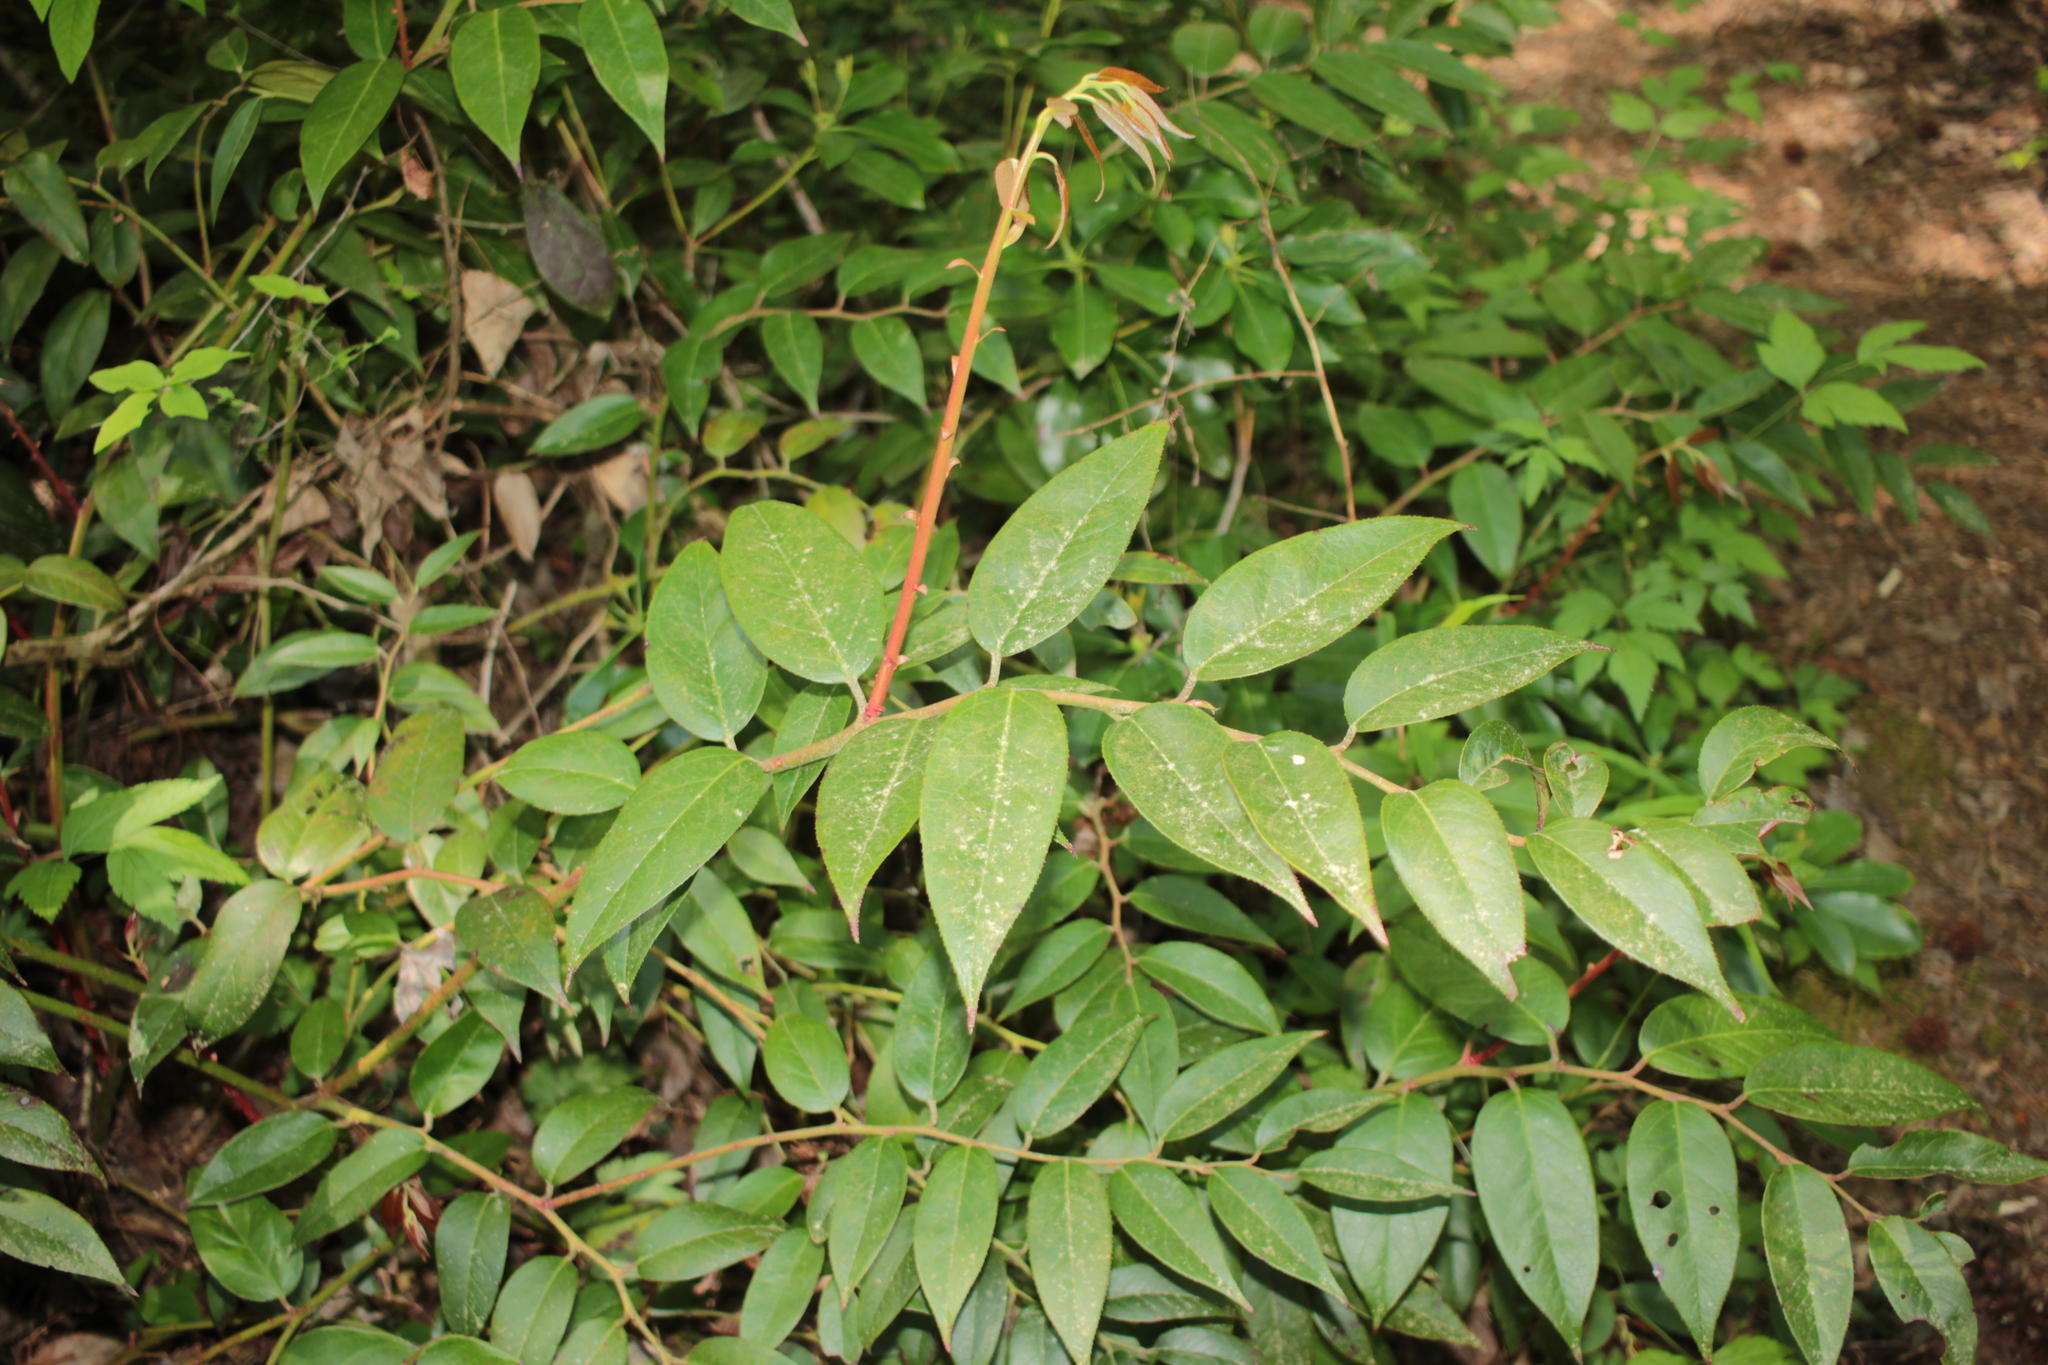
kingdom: Plantae
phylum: Tracheophyta
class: Magnoliopsida
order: Ericales
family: Ericaceae
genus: Leucothoe
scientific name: Leucothoe fontanesiana
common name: Fetterbush
